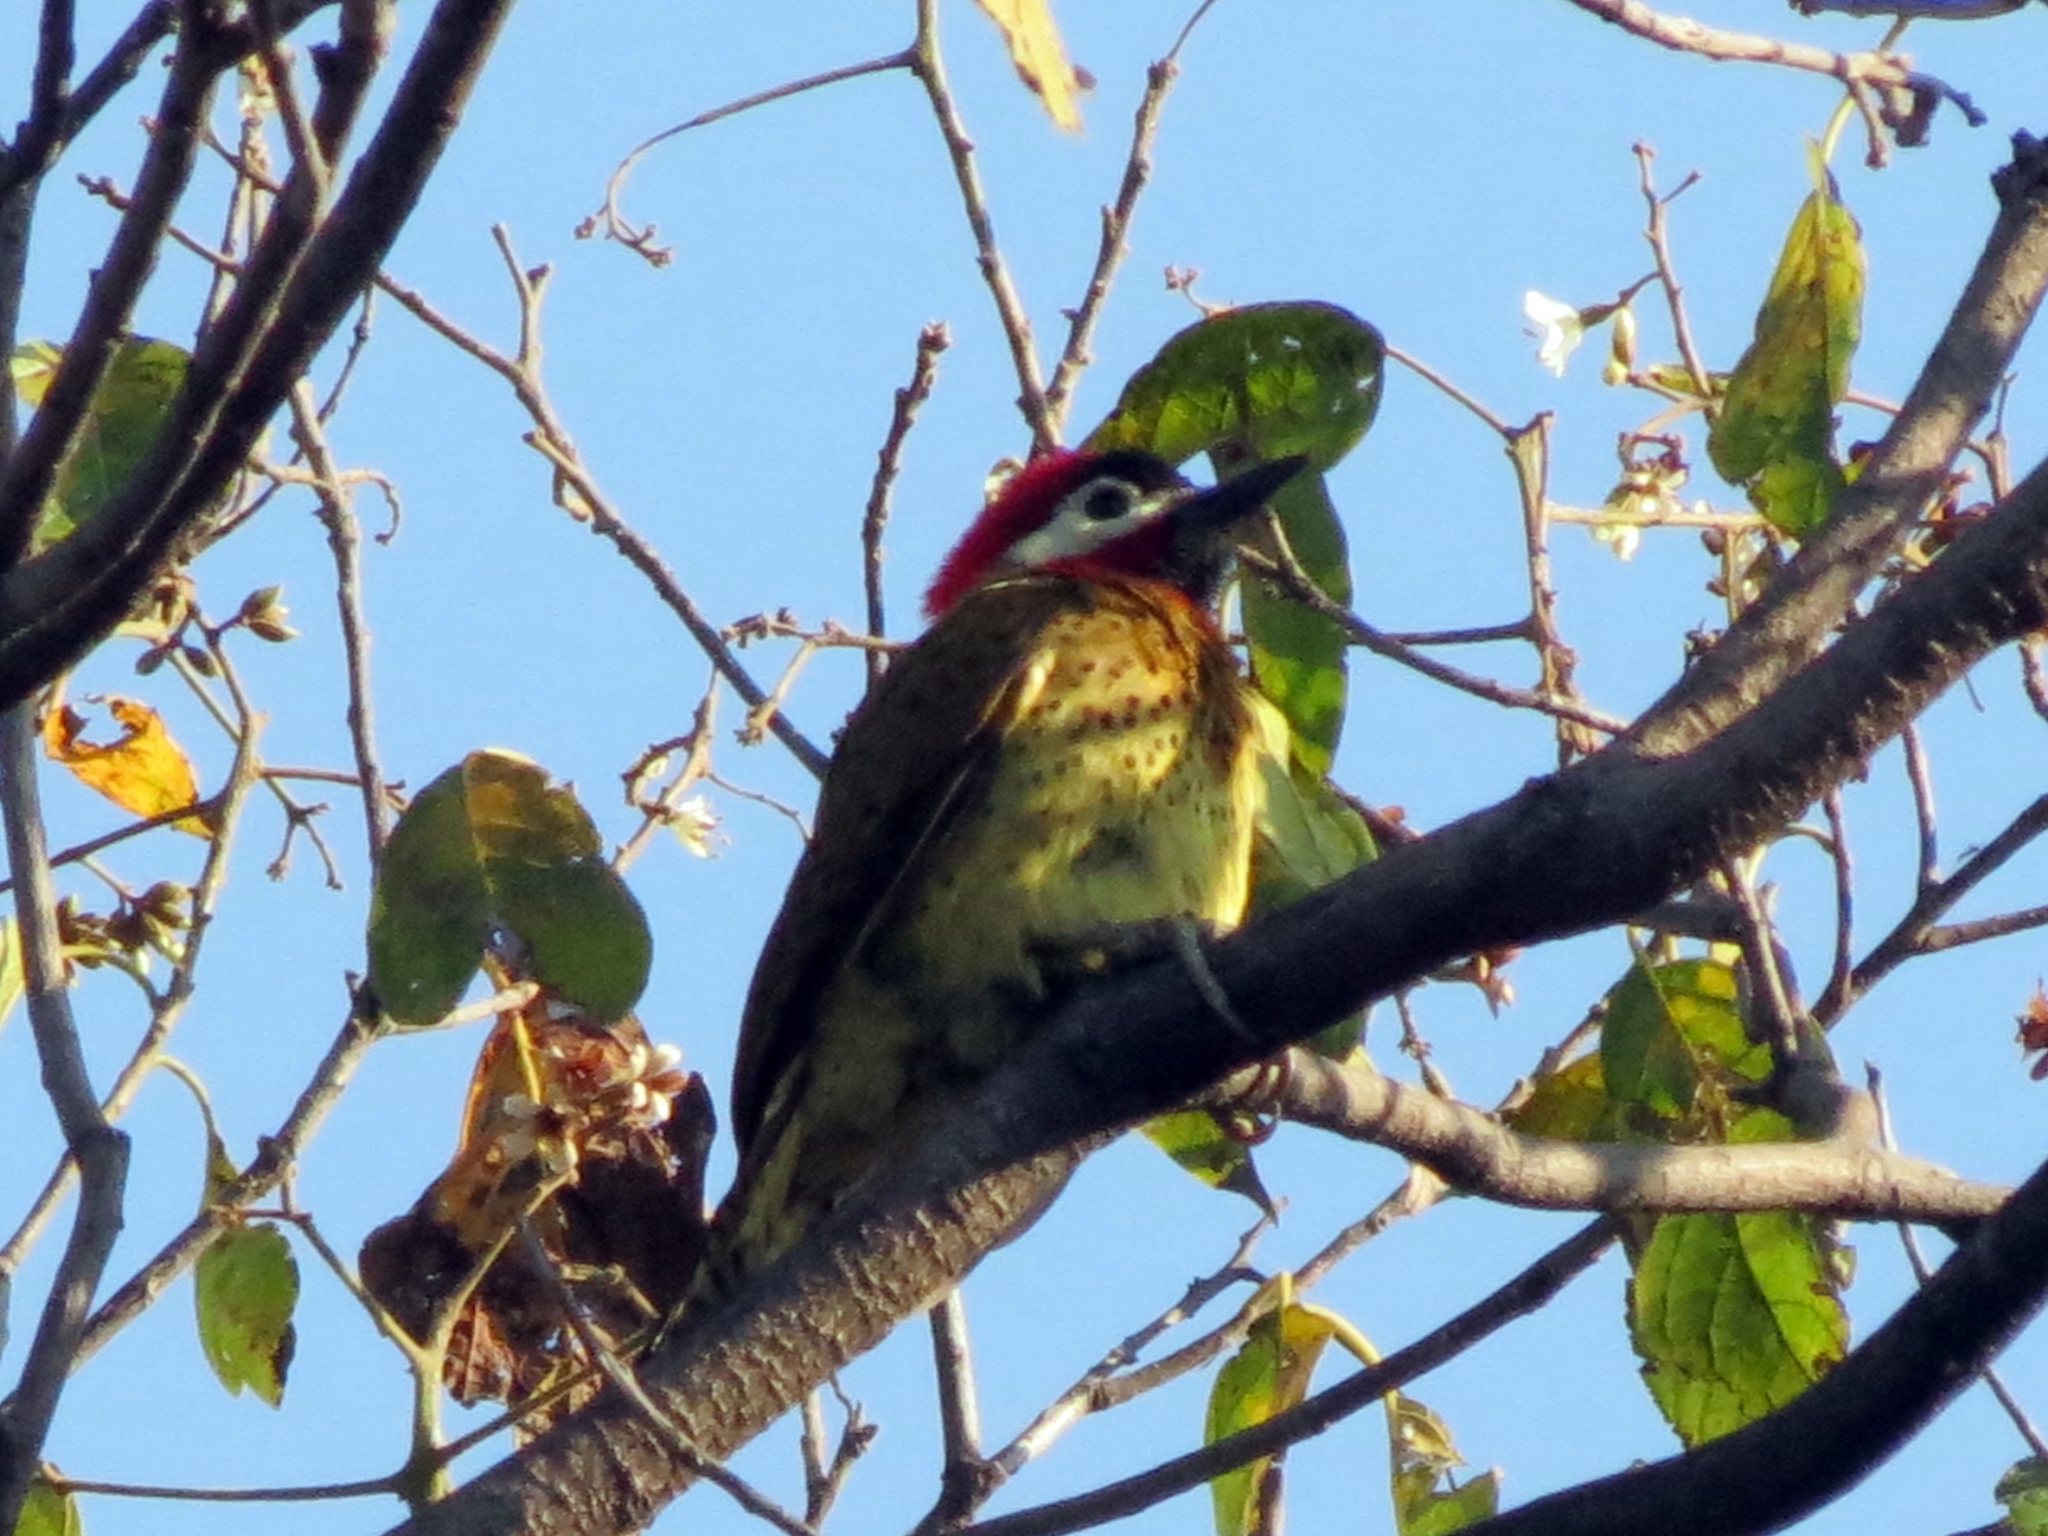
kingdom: Animalia
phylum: Chordata
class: Aves
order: Piciformes
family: Picidae
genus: Colaptes
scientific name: Colaptes punctigula
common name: Spot-breasted woodpecker
